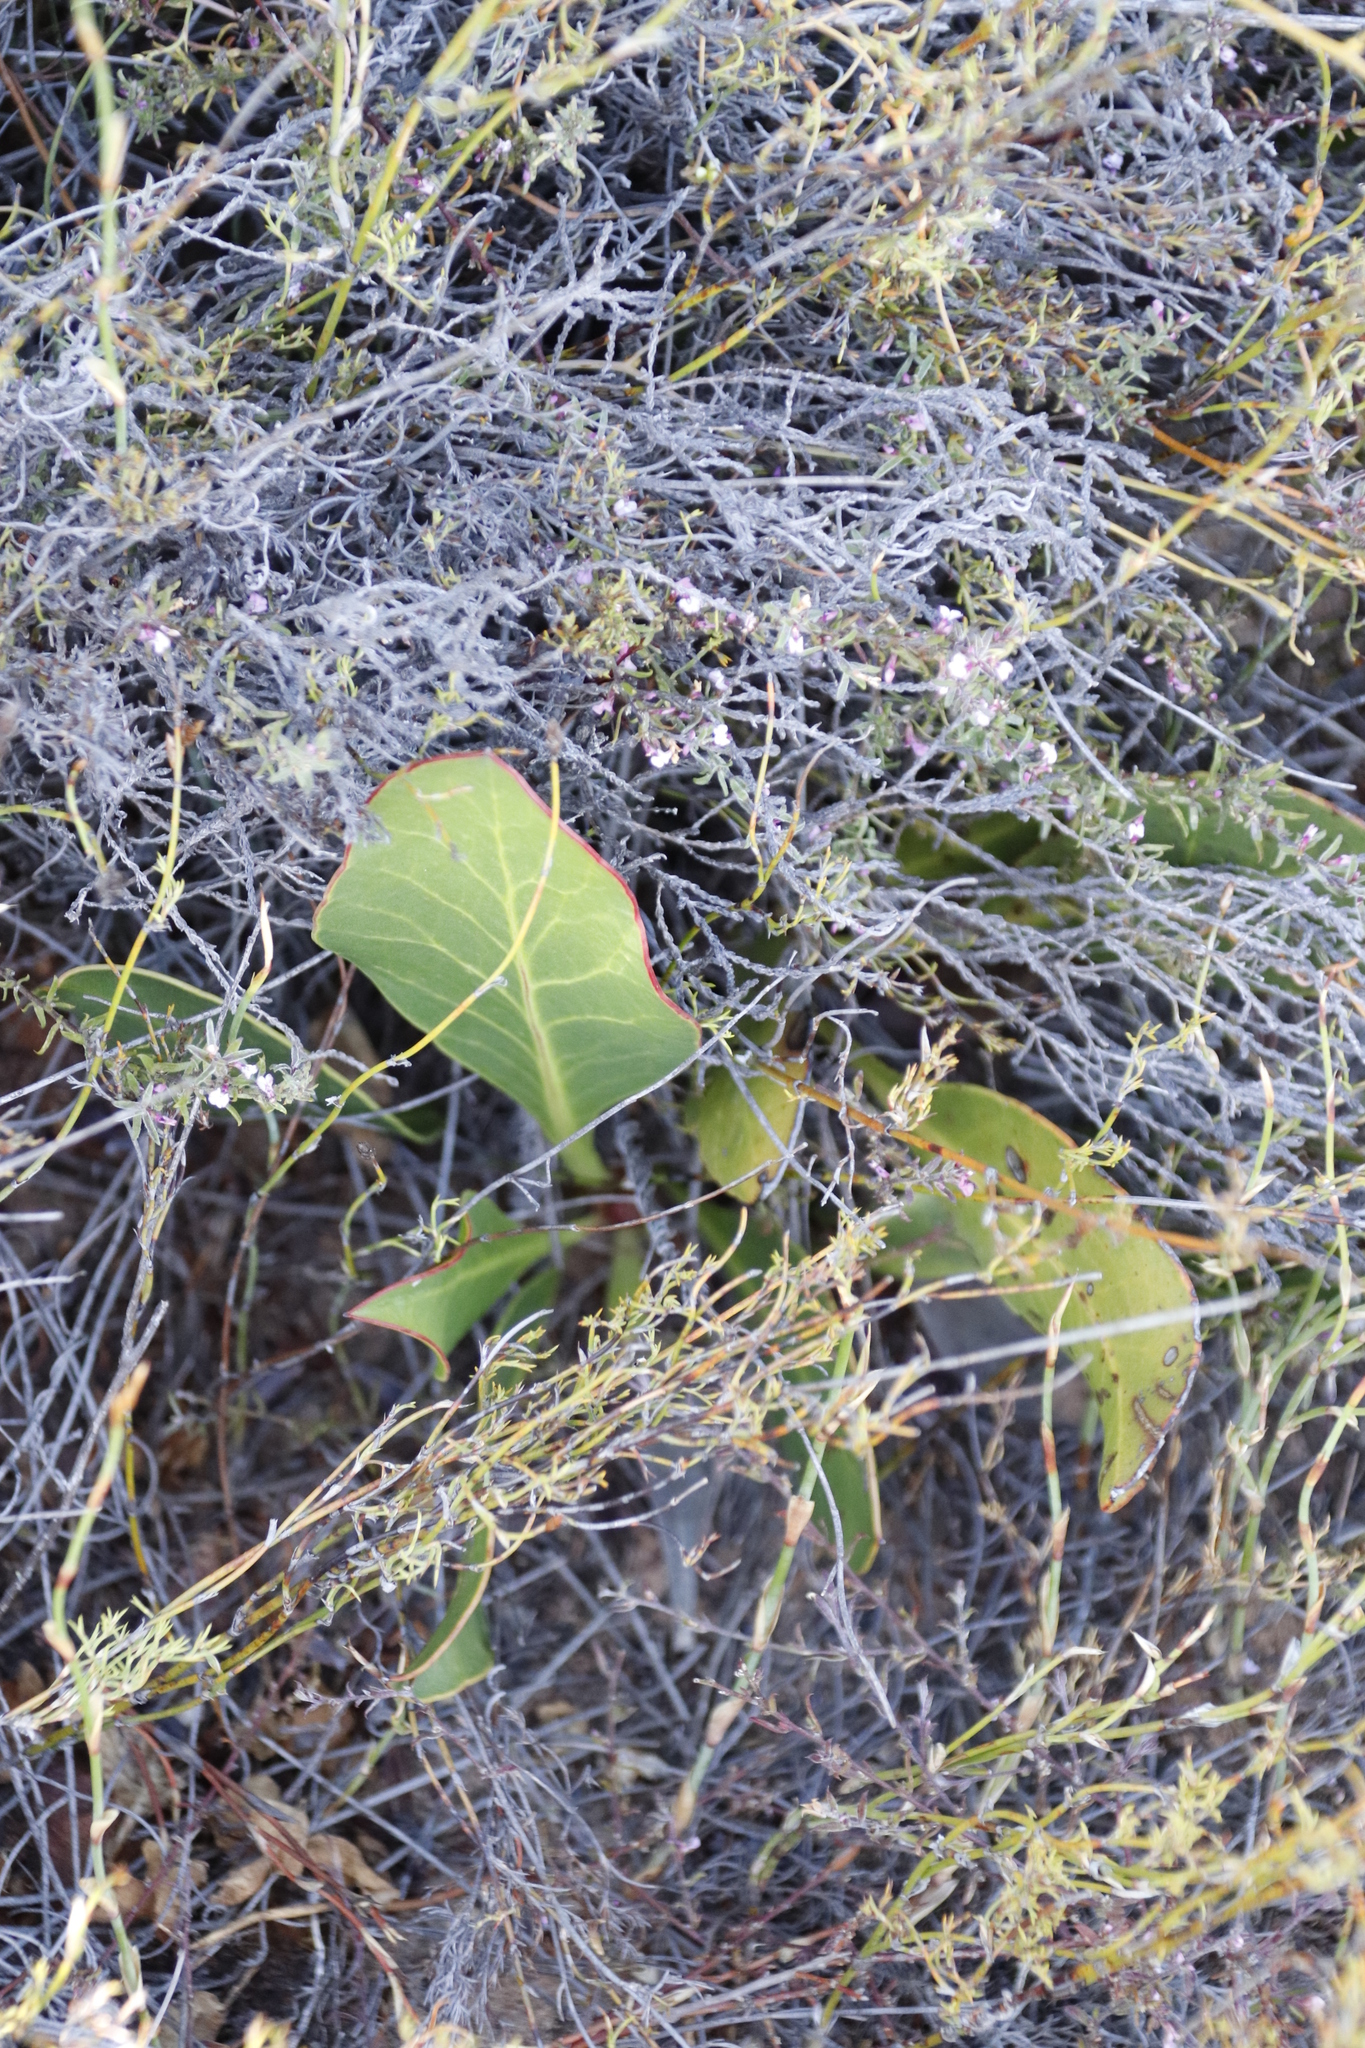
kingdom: Plantae
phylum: Tracheophyta
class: Magnoliopsida
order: Proteales
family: Proteaceae
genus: Protea
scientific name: Protea acaulos
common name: Common ground sugarbush
